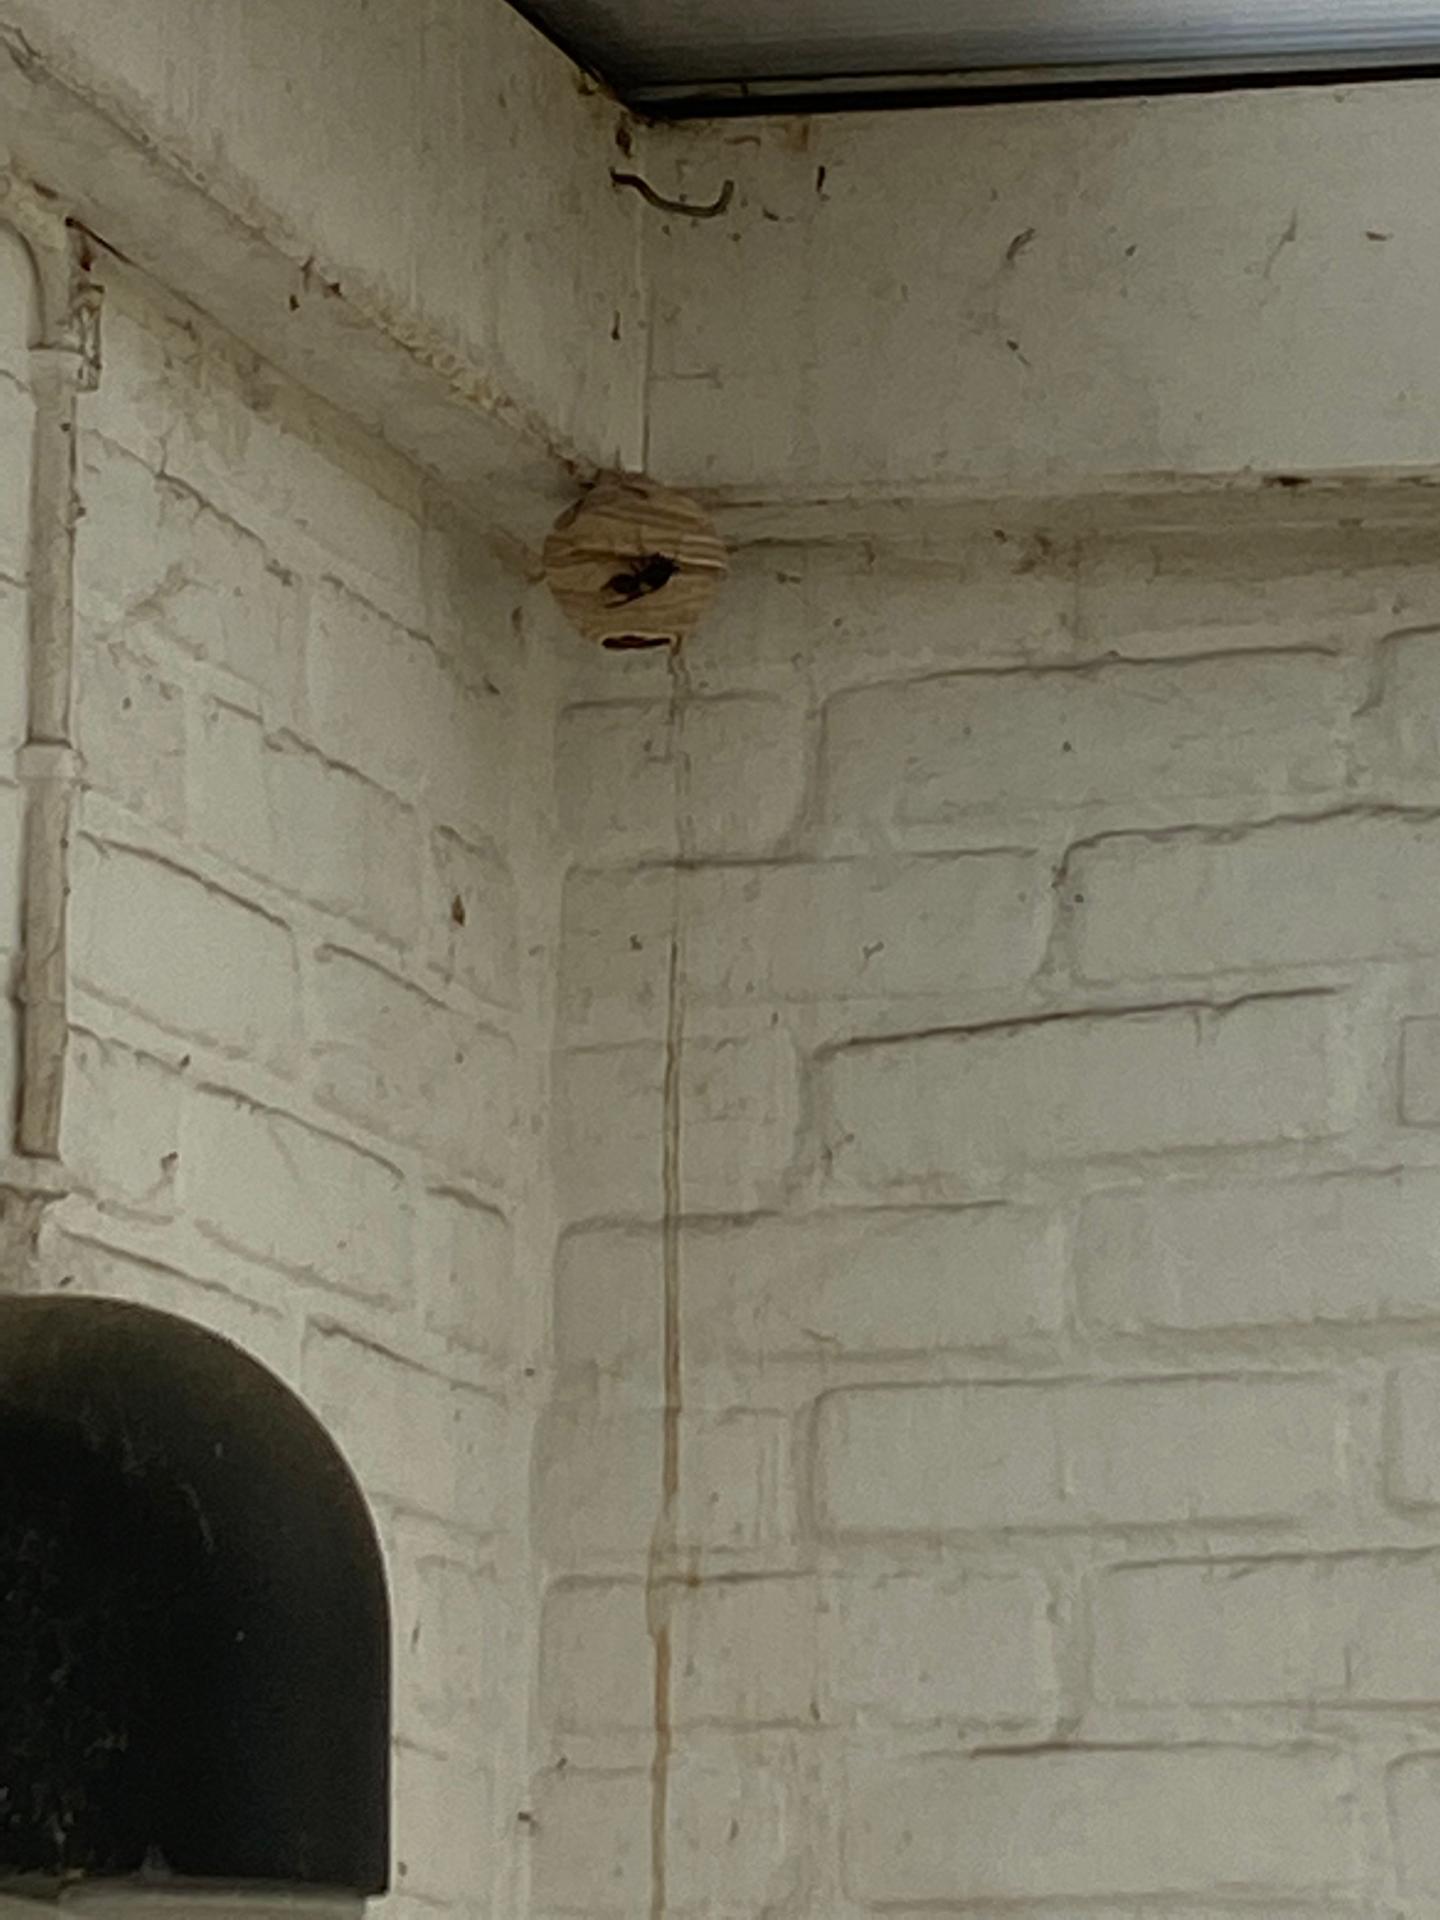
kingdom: Animalia
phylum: Arthropoda
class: Insecta
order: Hymenoptera
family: Vespidae
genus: Vespa
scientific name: Vespa velutina
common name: Asian hornet
